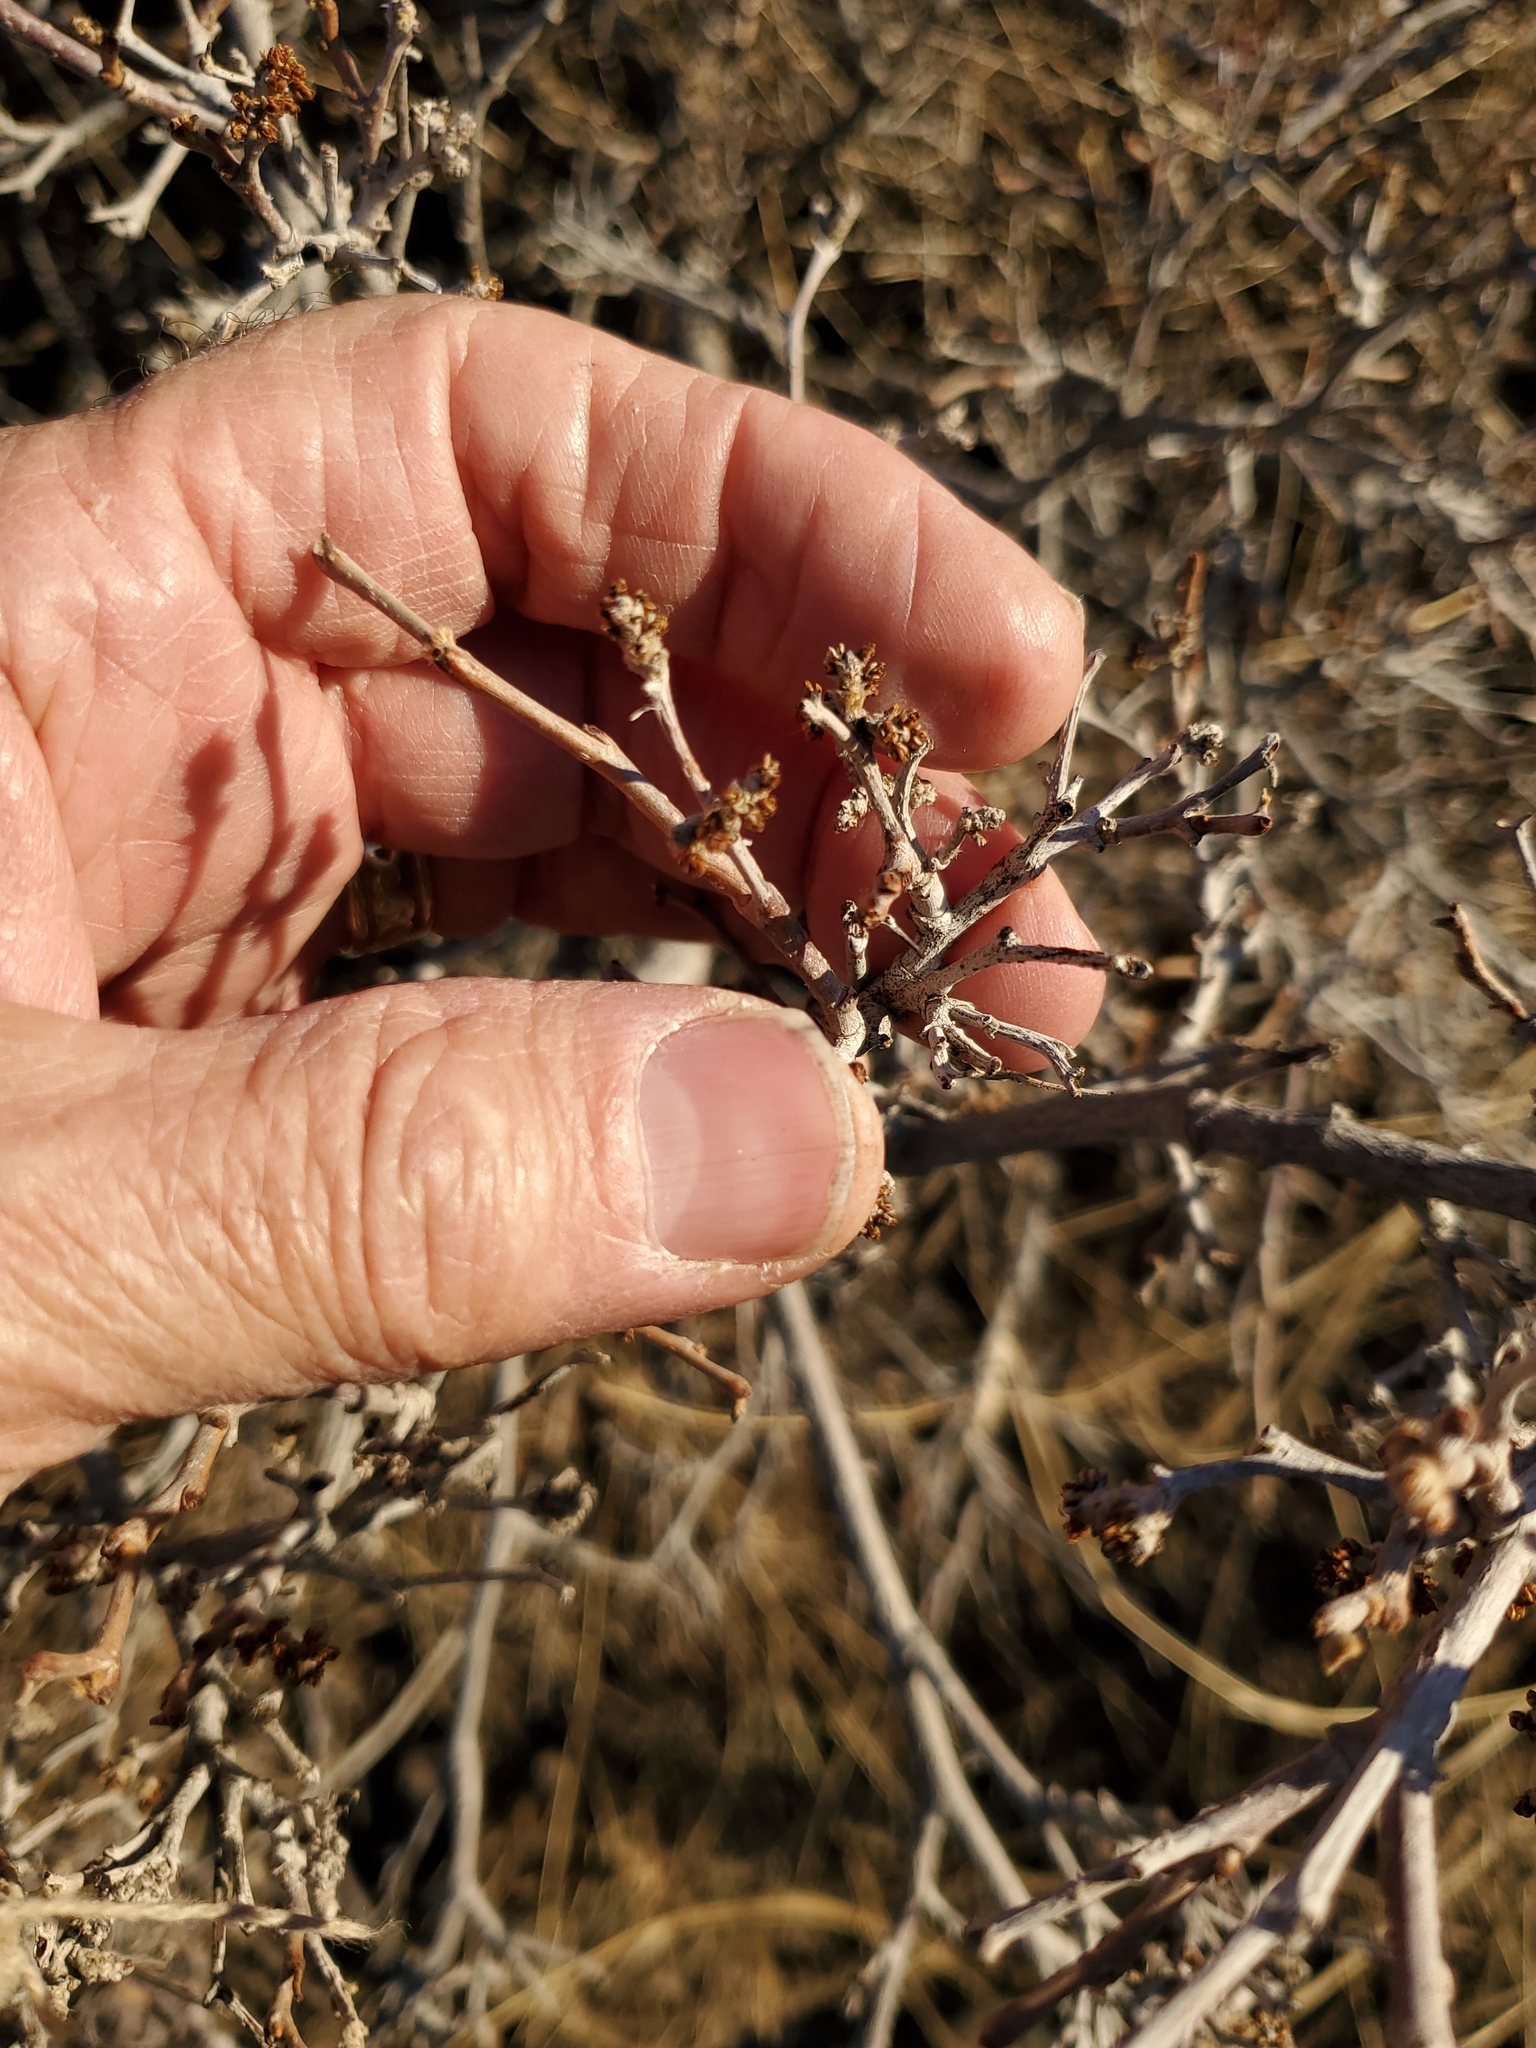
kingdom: Plantae
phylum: Tracheophyta
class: Magnoliopsida
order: Sapindales
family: Anacardiaceae
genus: Rhus
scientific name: Rhus aromatica
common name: Aromatic sumac
